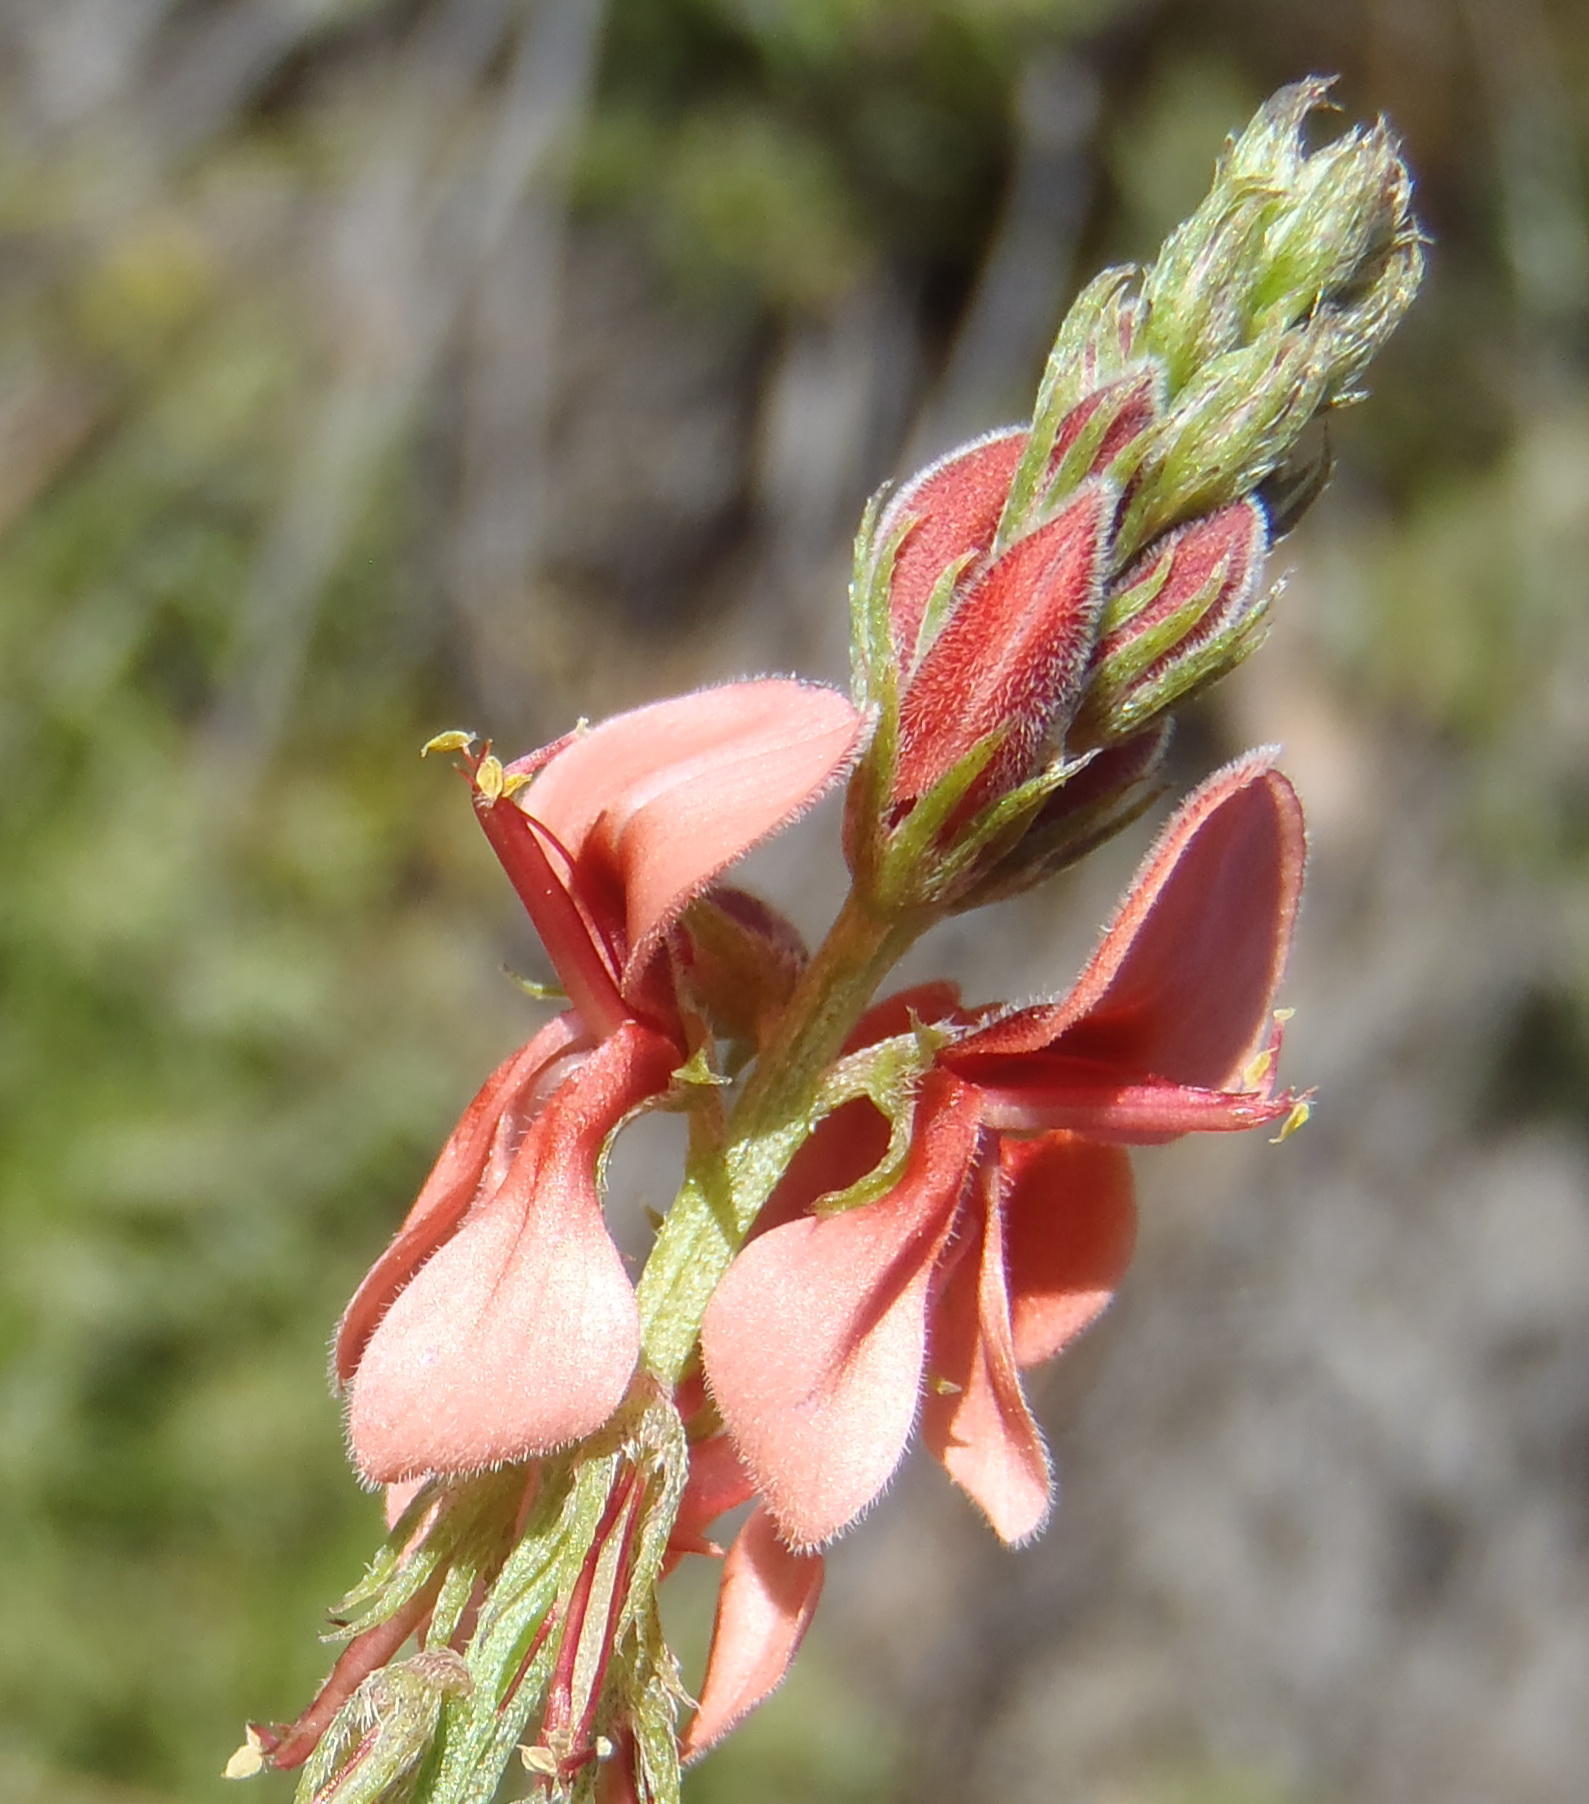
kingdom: Plantae
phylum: Tracheophyta
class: Magnoliopsida
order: Fabales
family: Fabaceae
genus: Indigofera
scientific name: Indigofera heterophylla
